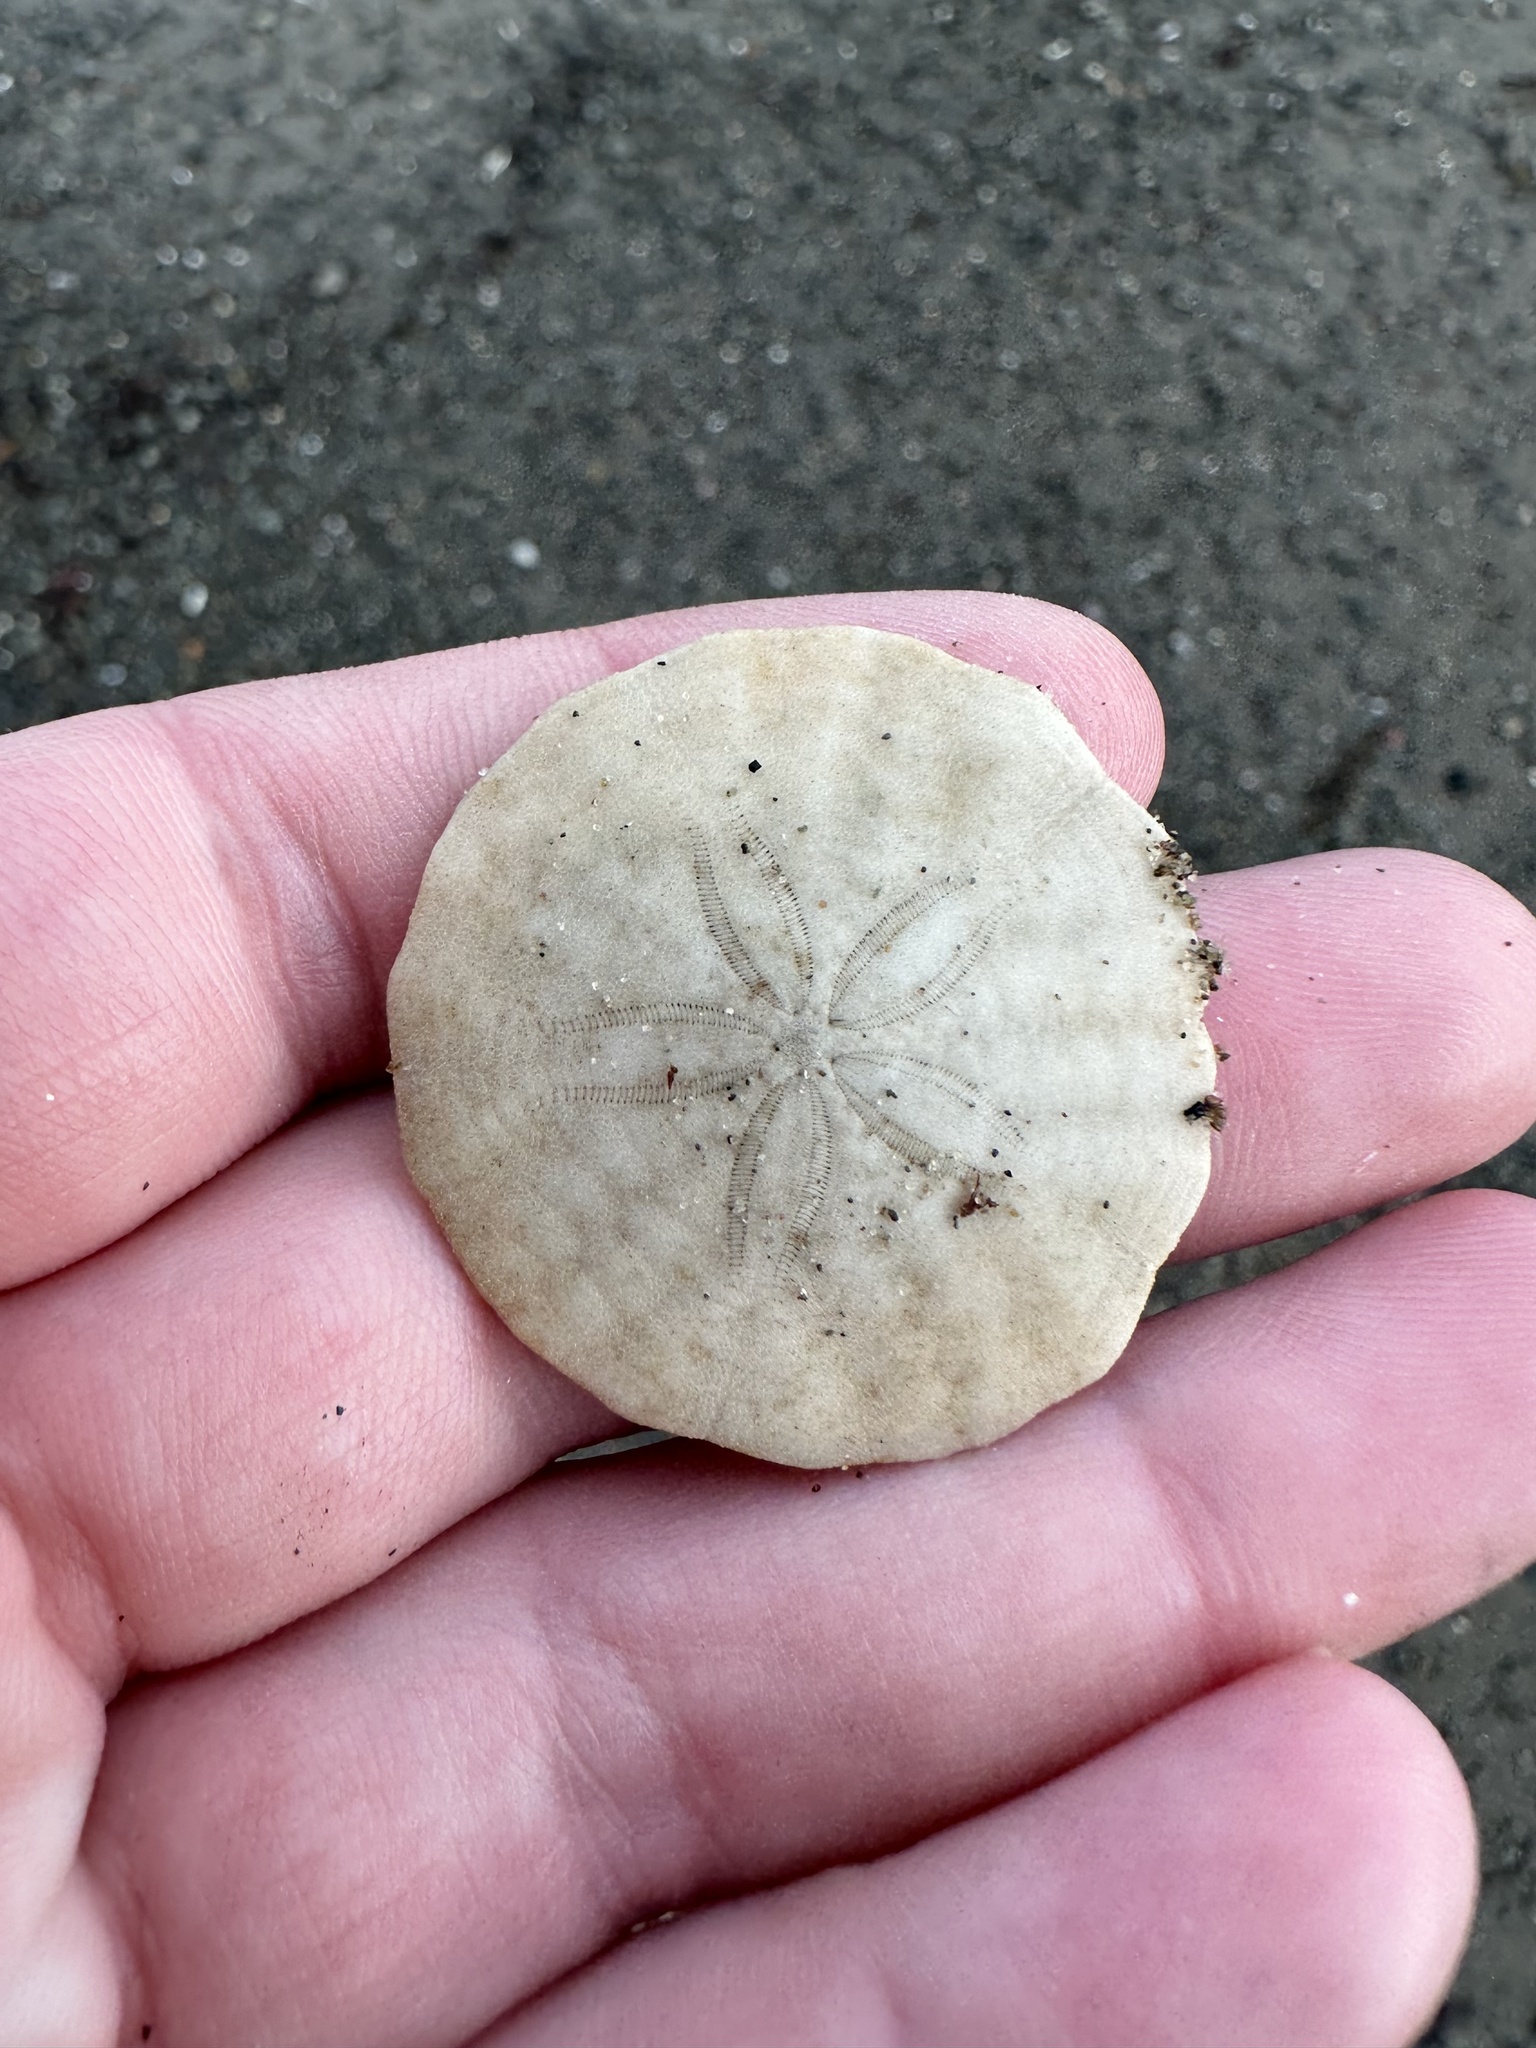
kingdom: Animalia
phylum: Echinodermata
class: Echinoidea
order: Echinolampadacea
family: Echinarachniidae
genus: Echinarachnius
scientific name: Echinarachnius parma
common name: Common sand dollar
